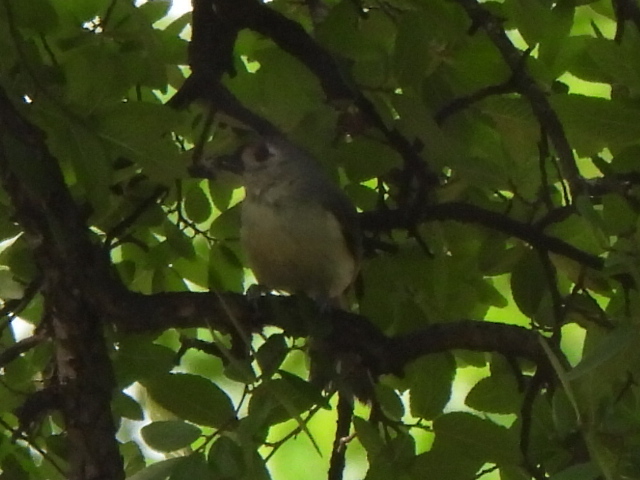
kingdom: Animalia
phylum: Chordata
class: Aves
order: Passeriformes
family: Paridae
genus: Baeolophus
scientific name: Baeolophus bicolor
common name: Tufted titmouse
